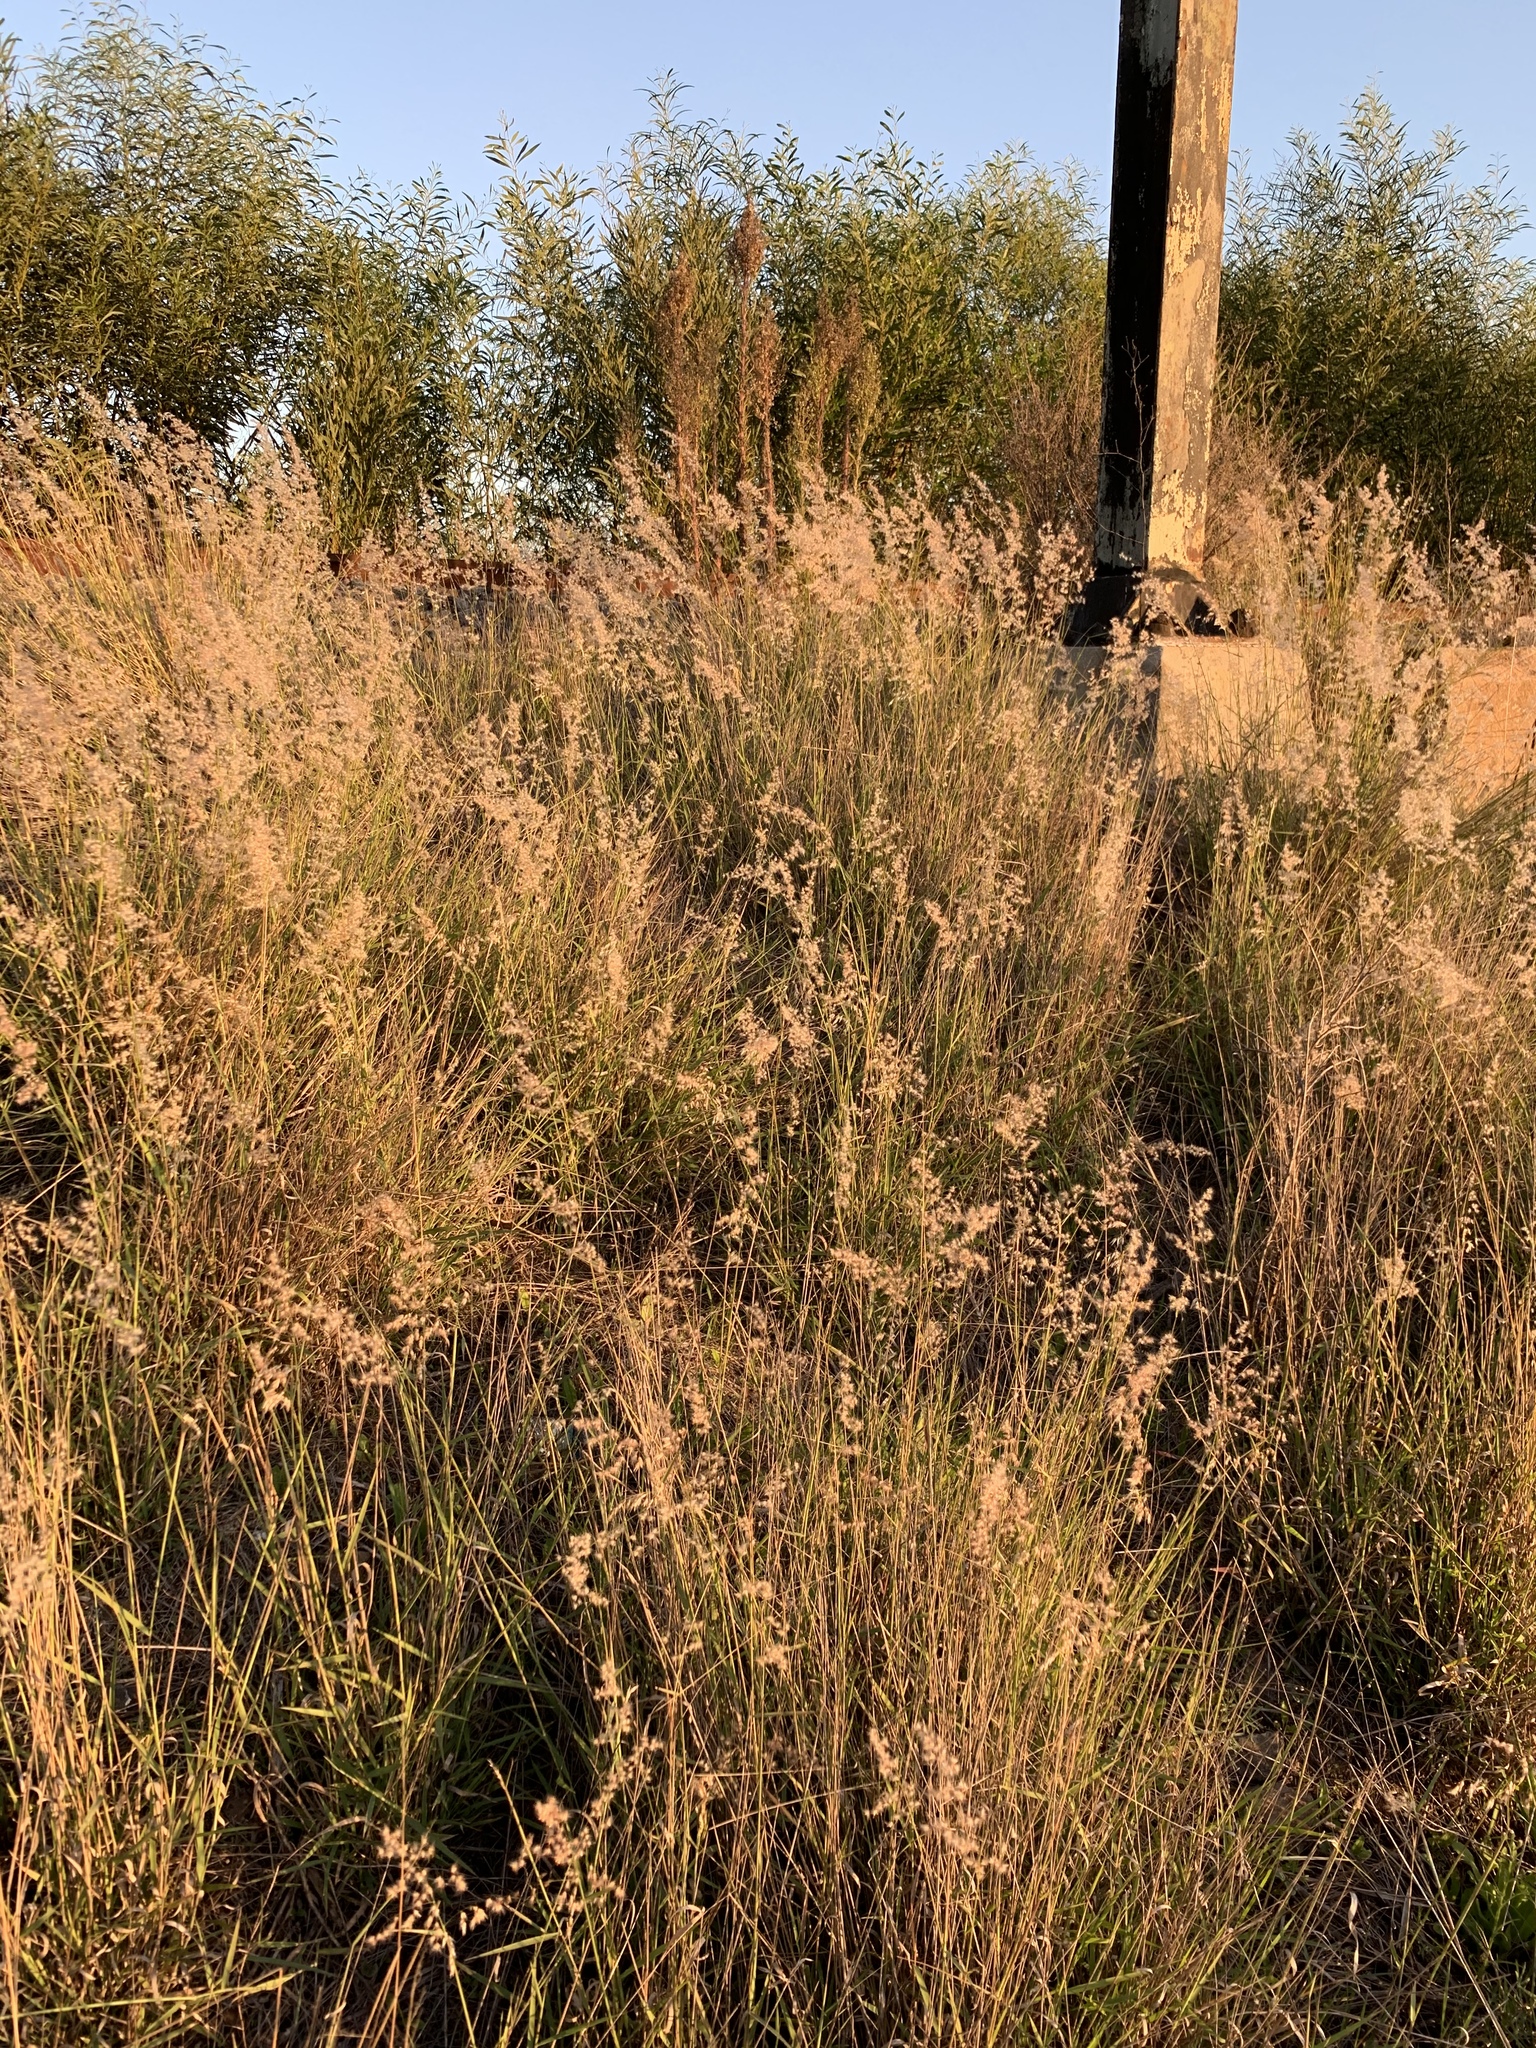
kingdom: Plantae
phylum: Tracheophyta
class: Liliopsida
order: Poales
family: Poaceae
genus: Melinis
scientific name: Melinis repens
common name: Rose natal grass
